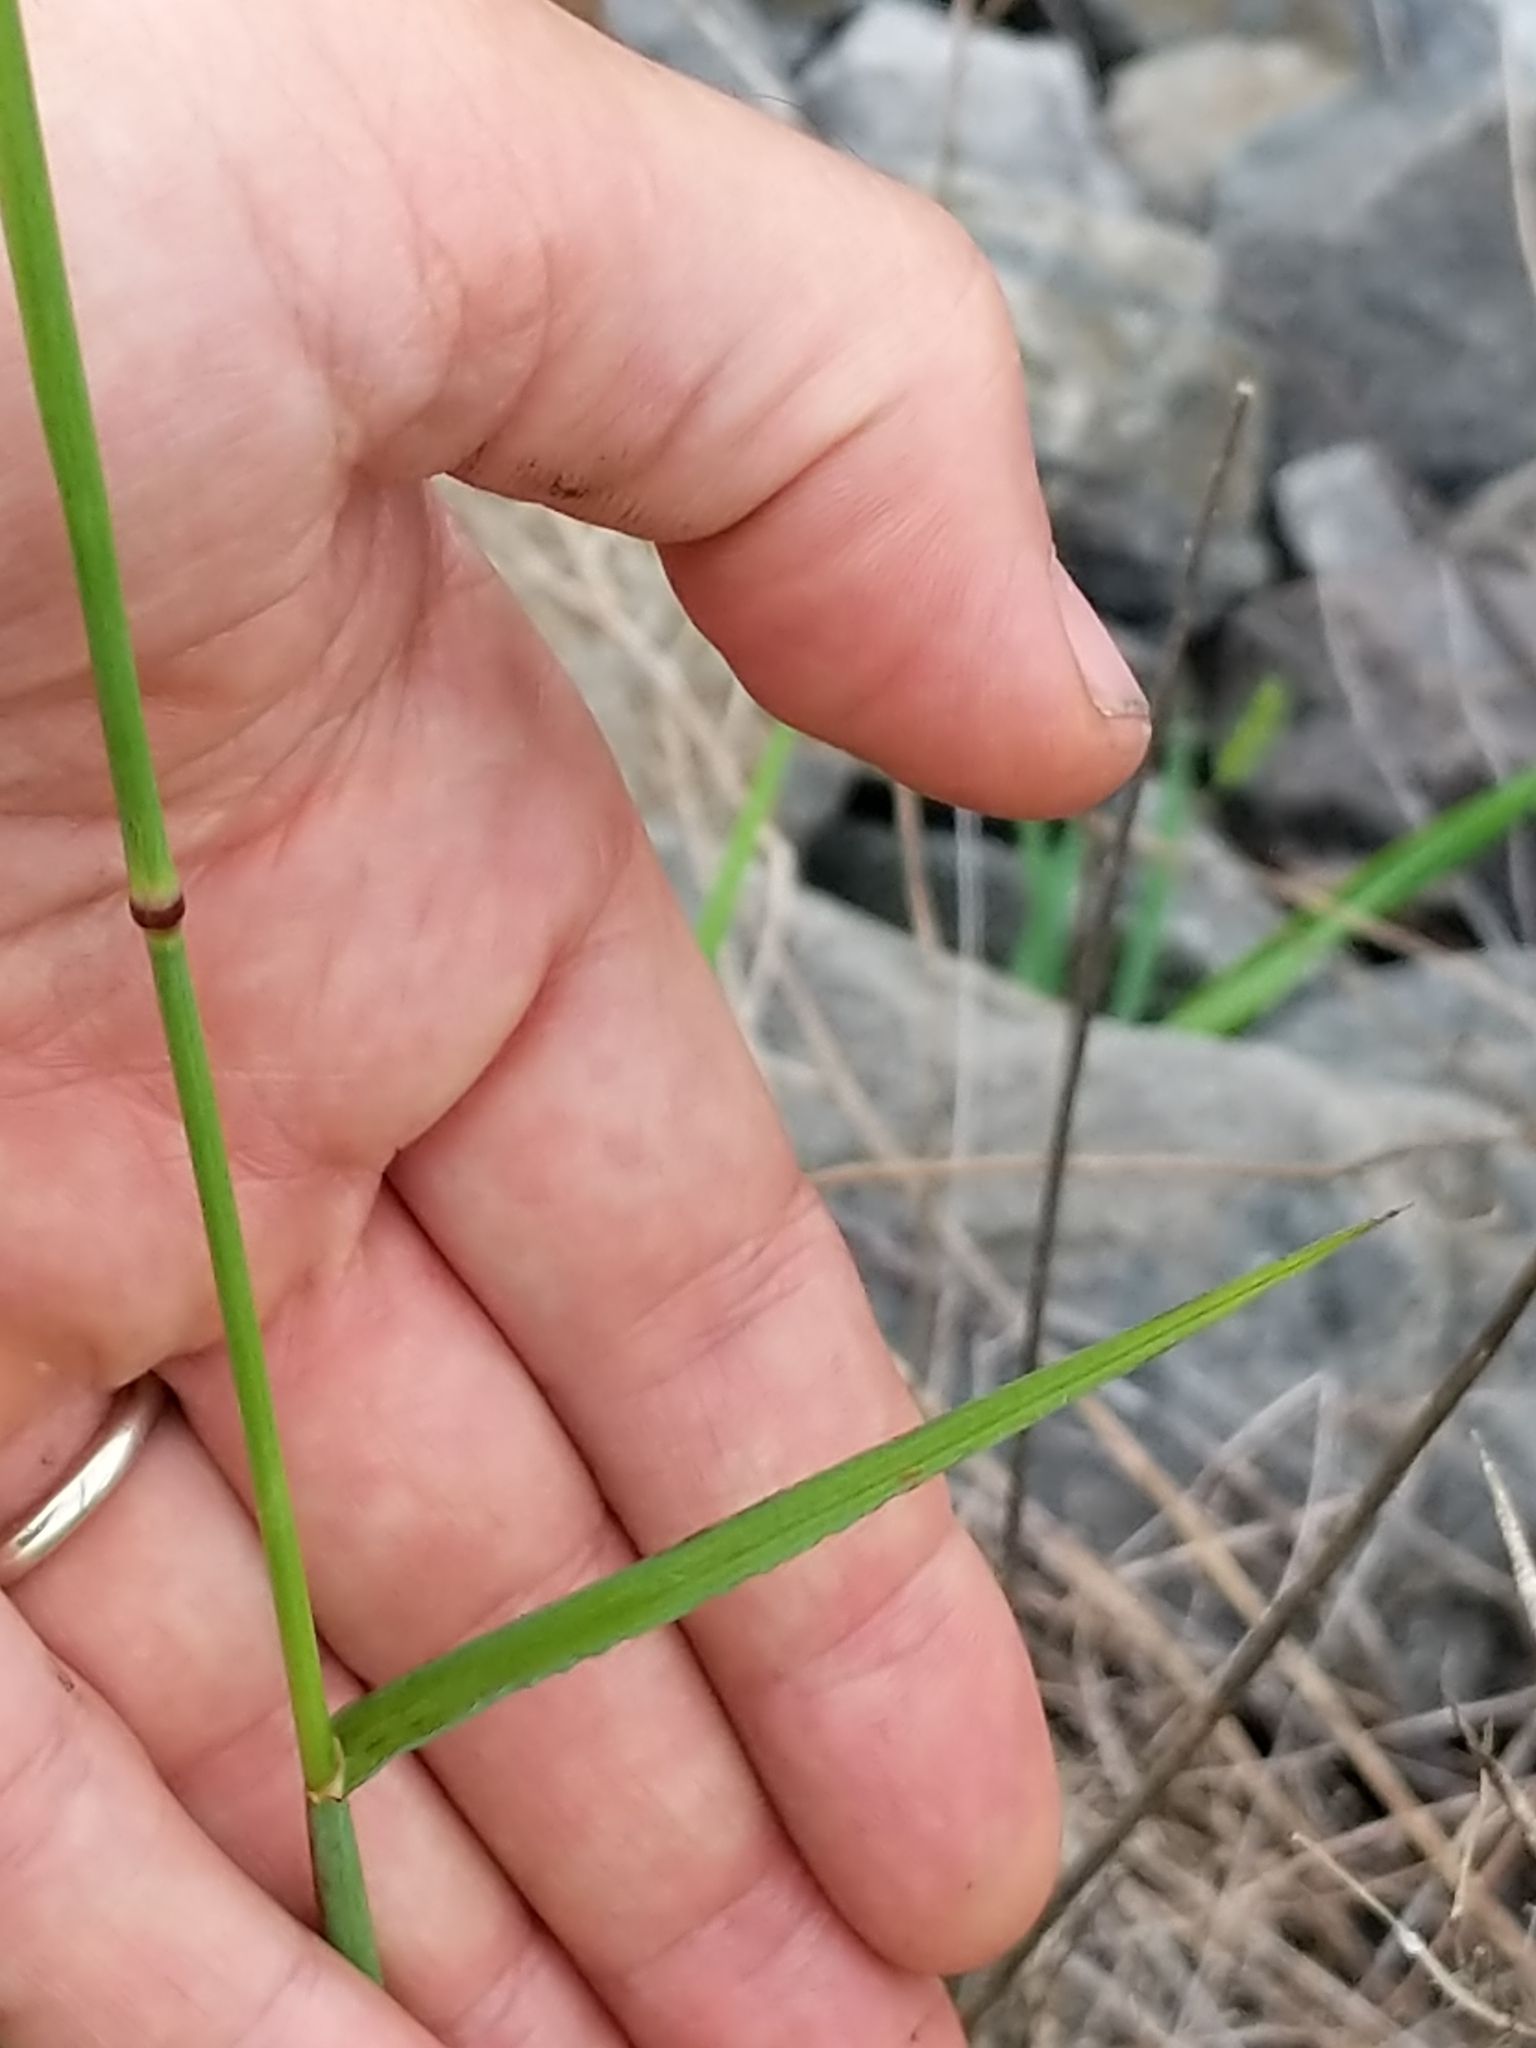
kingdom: Plantae
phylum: Tracheophyta
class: Liliopsida
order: Poales
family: Poaceae
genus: Chloris
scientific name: Chloris virgata
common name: Feathery rhodes-grass
